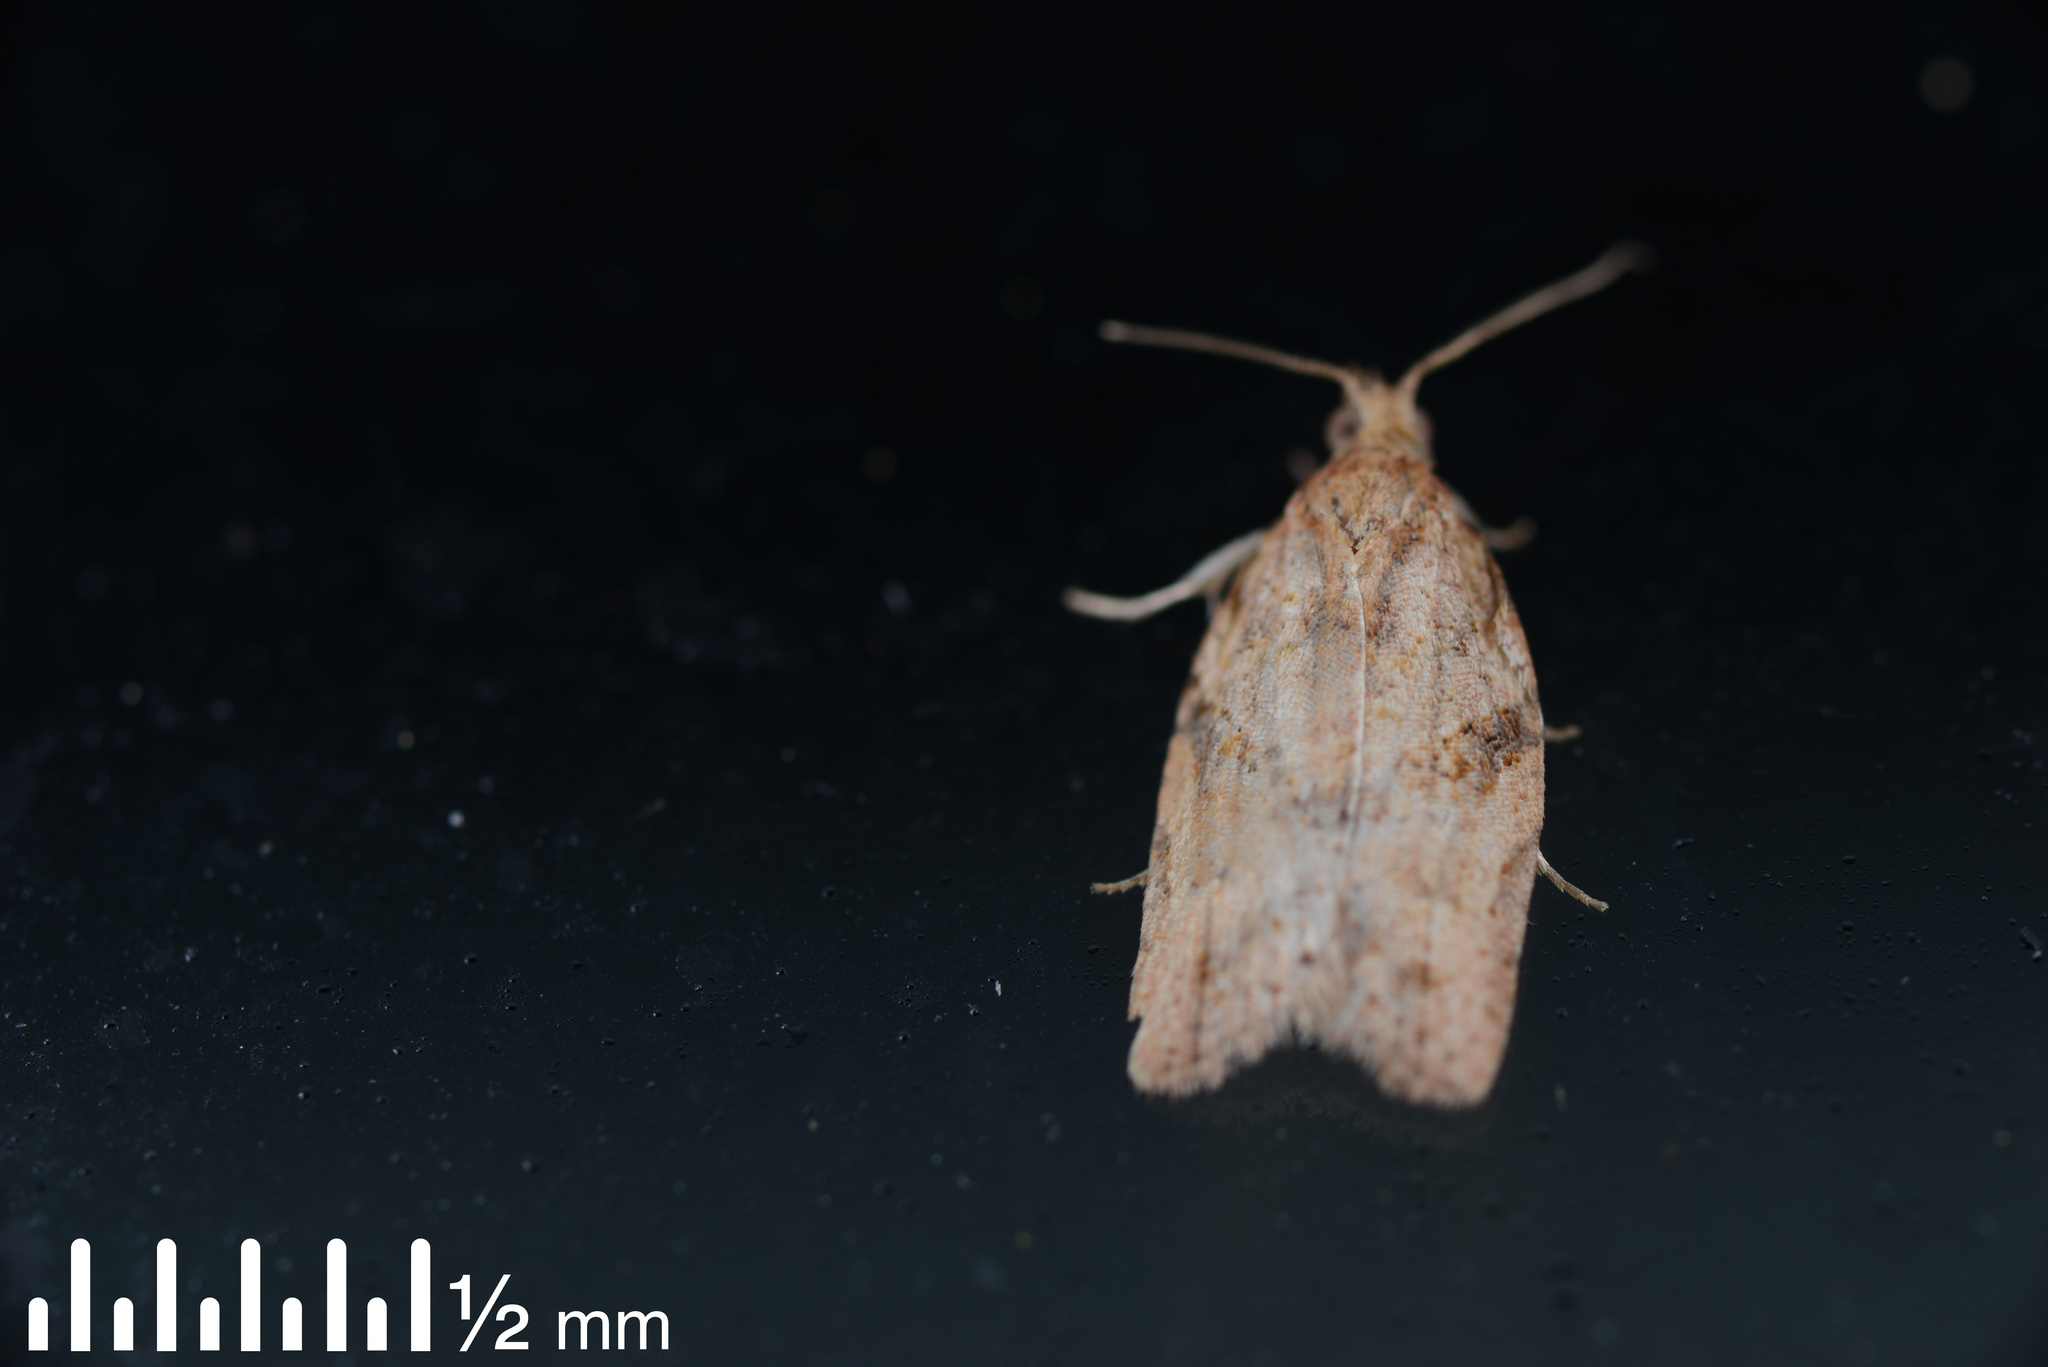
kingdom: Animalia
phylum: Arthropoda
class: Insecta
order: Lepidoptera
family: Tortricidae
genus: Epiphyas
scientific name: Epiphyas postvittana
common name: Light brown apple moth
